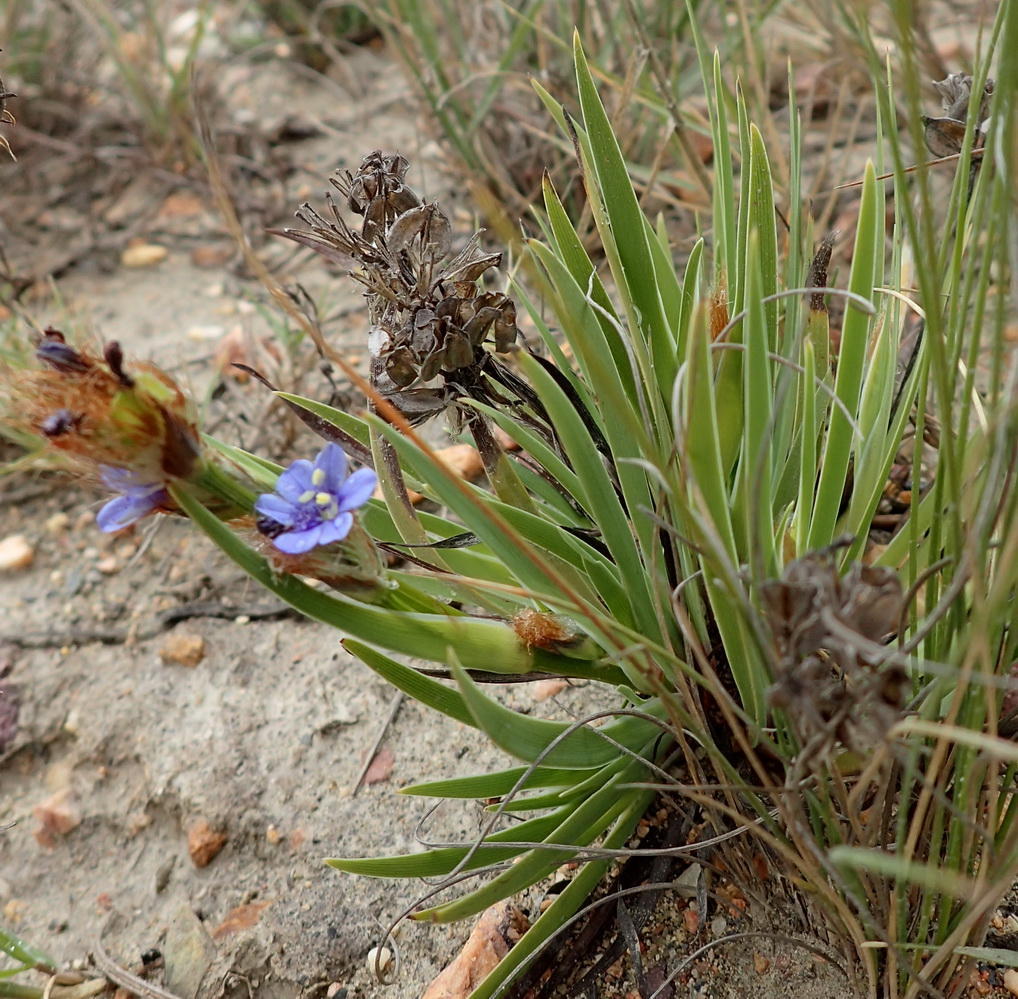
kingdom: Plantae
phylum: Tracheophyta
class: Liliopsida
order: Asparagales
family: Iridaceae
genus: Aristea
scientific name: Aristea africana
